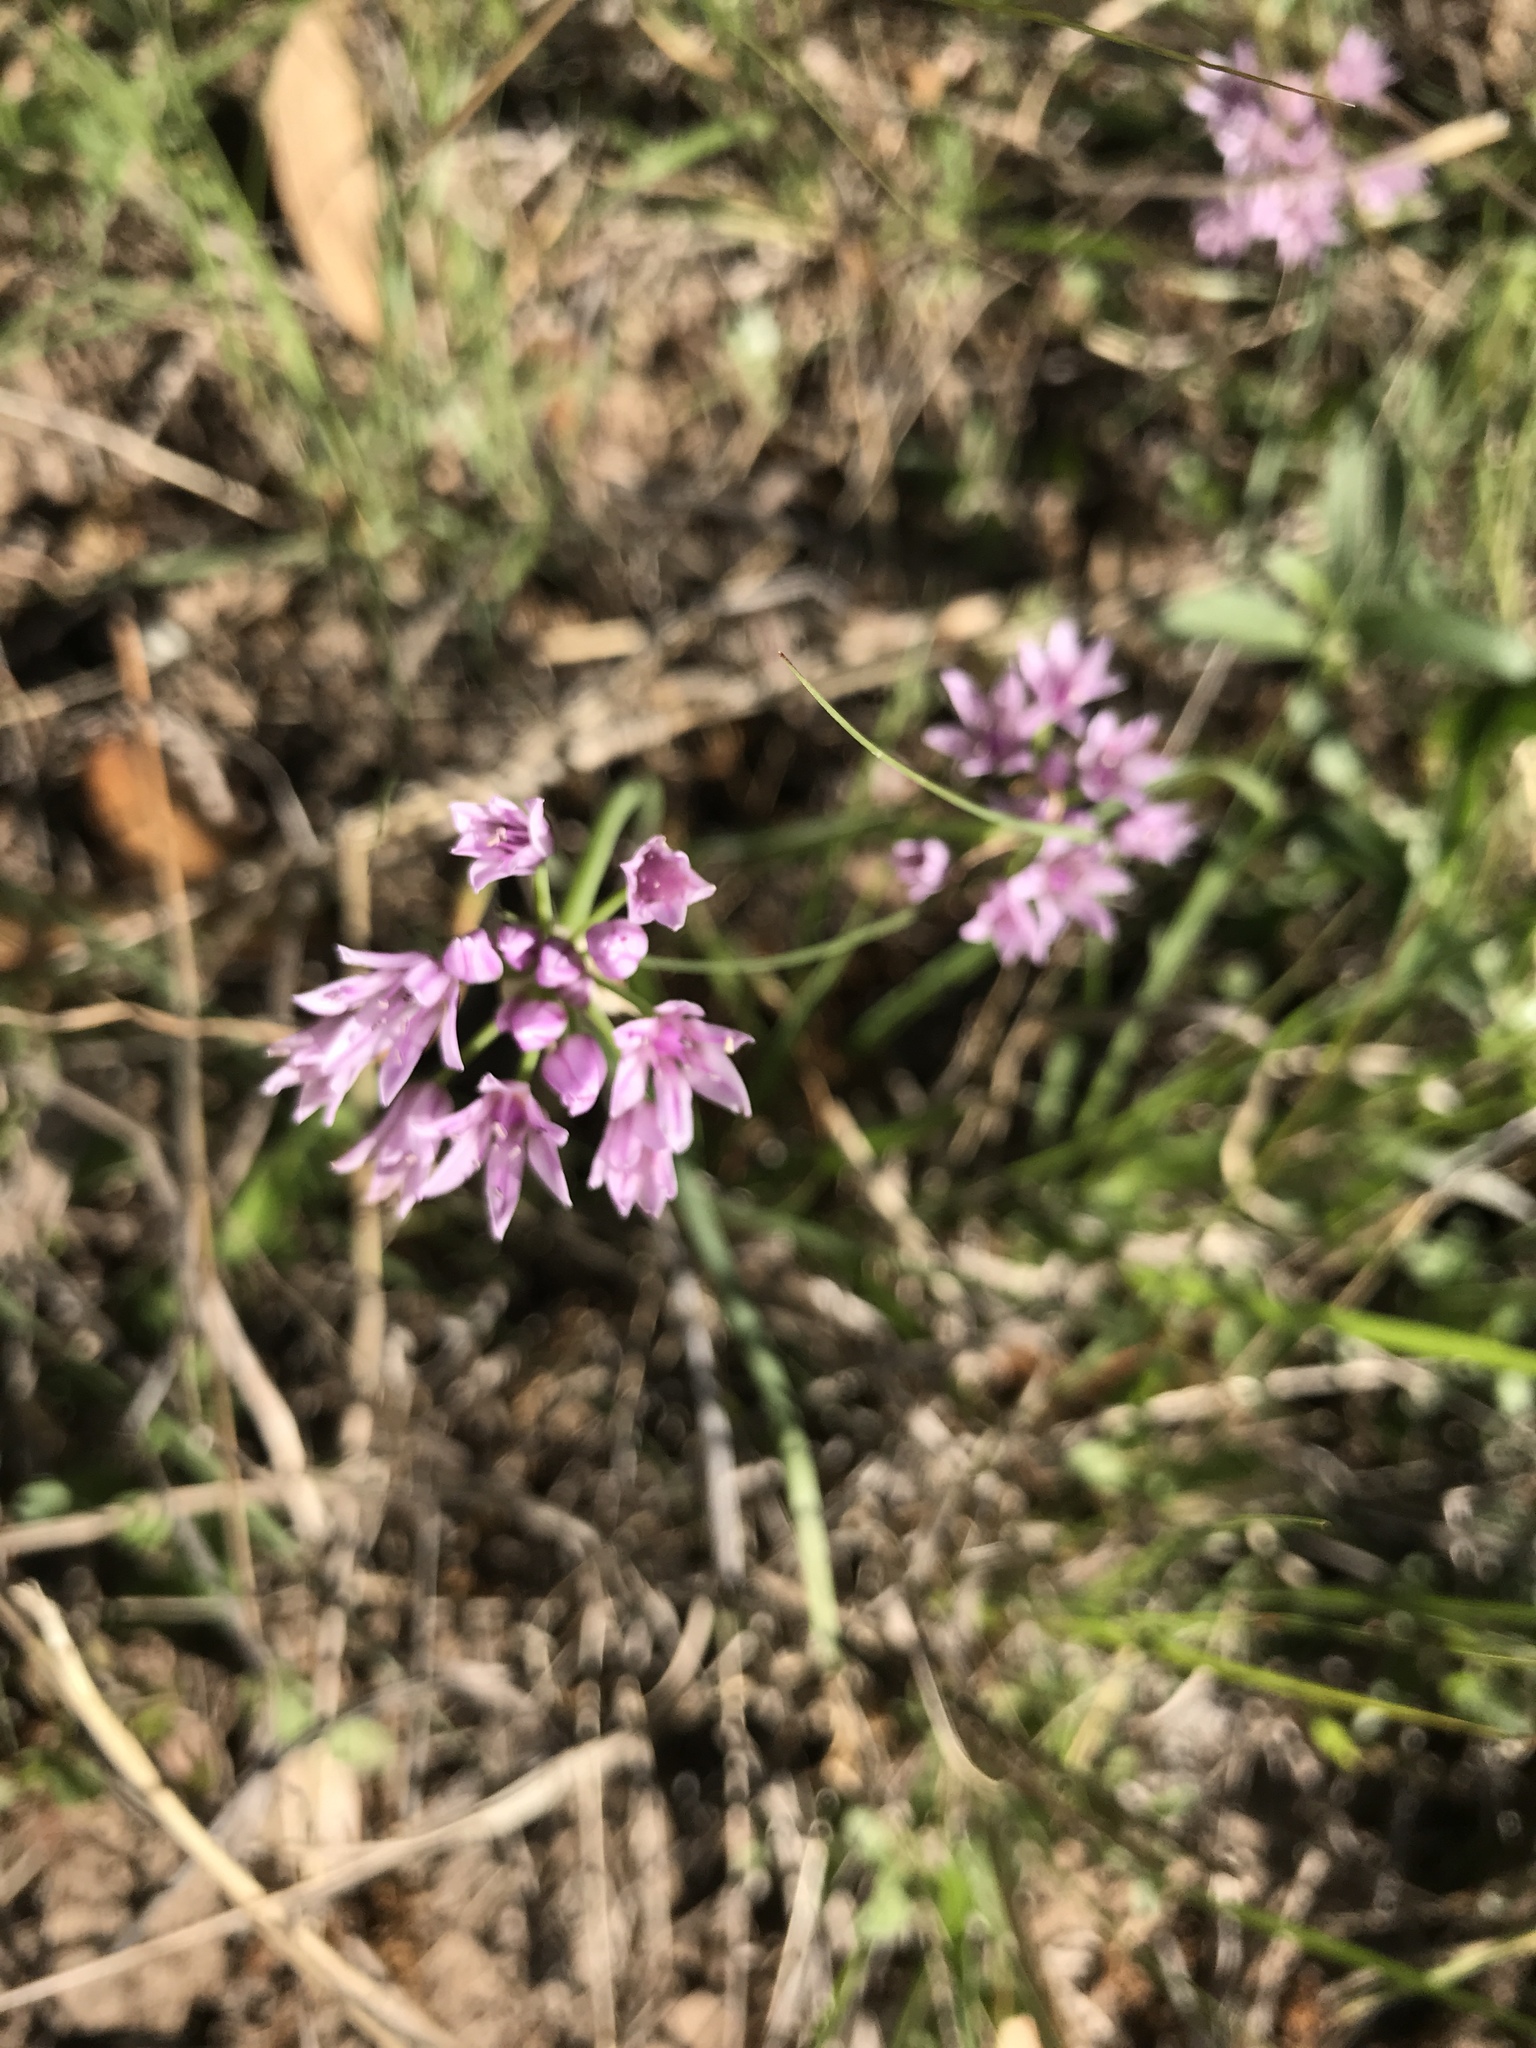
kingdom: Plantae
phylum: Tracheophyta
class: Liliopsida
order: Asparagales
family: Amaryllidaceae
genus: Allium
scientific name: Allium drummondii
